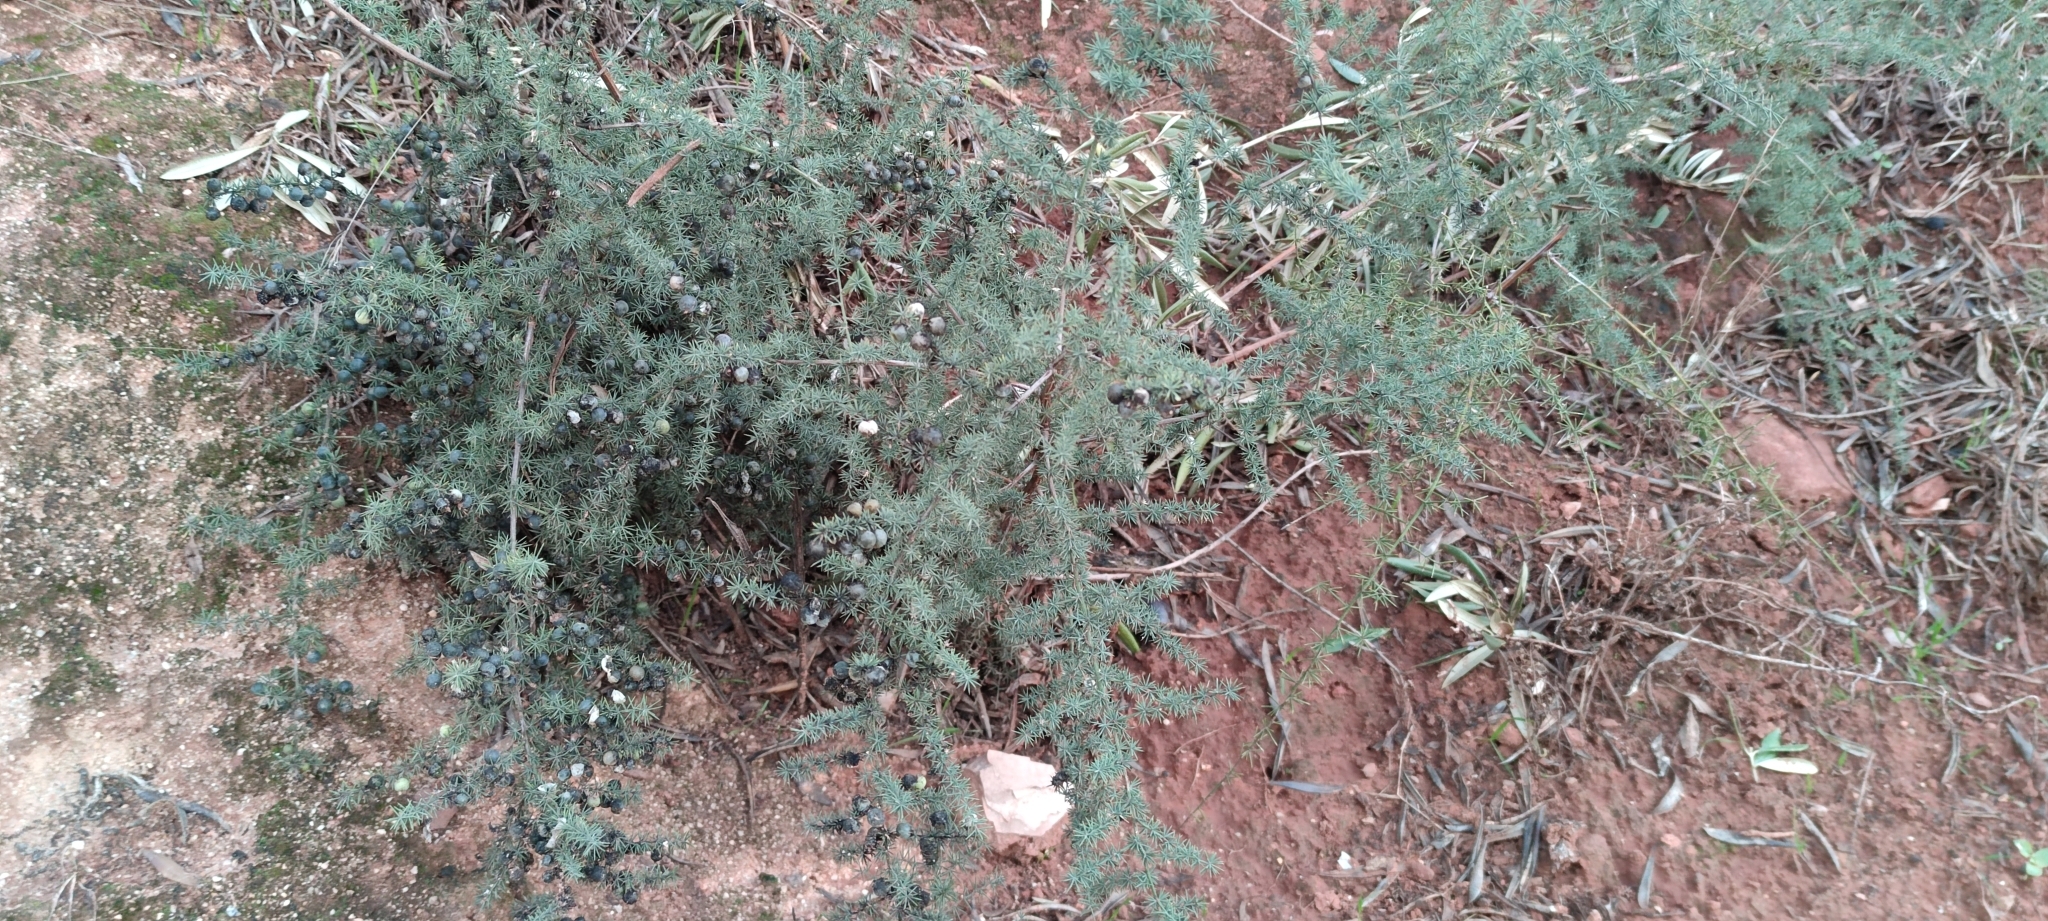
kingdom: Plantae
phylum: Tracheophyta
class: Liliopsida
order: Asparagales
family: Asparagaceae
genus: Asparagus
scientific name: Asparagus acutifolius
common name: Wild asparagus
